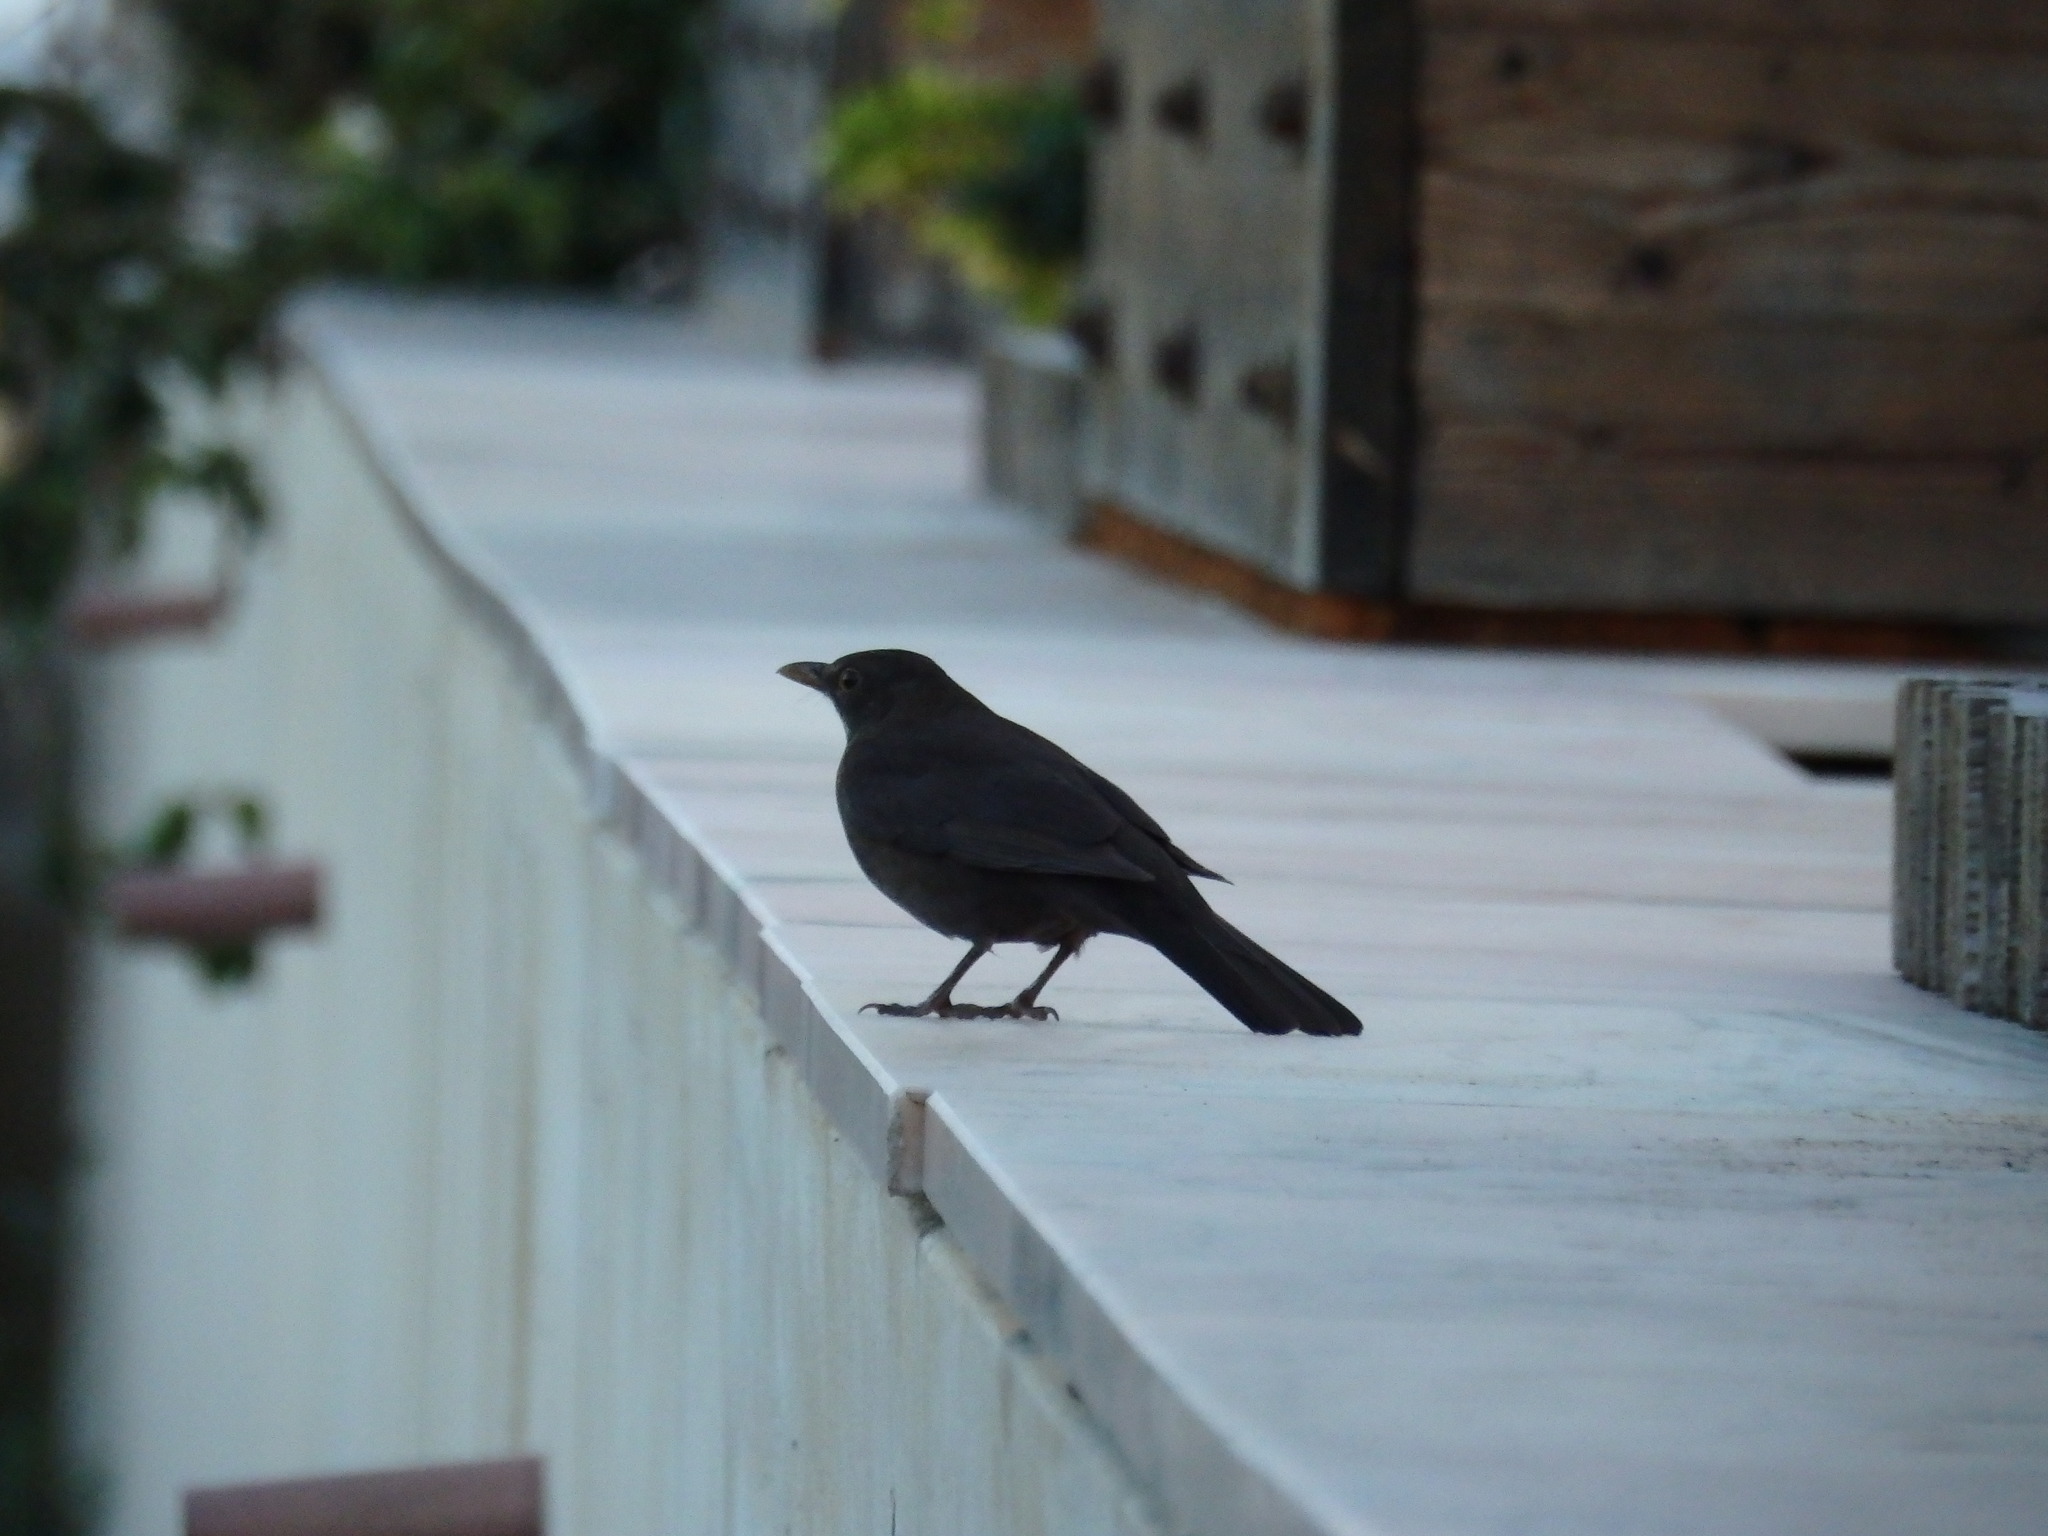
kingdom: Animalia
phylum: Chordata
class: Aves
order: Passeriformes
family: Turdidae
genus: Turdus
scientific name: Turdus merula
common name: Common blackbird
